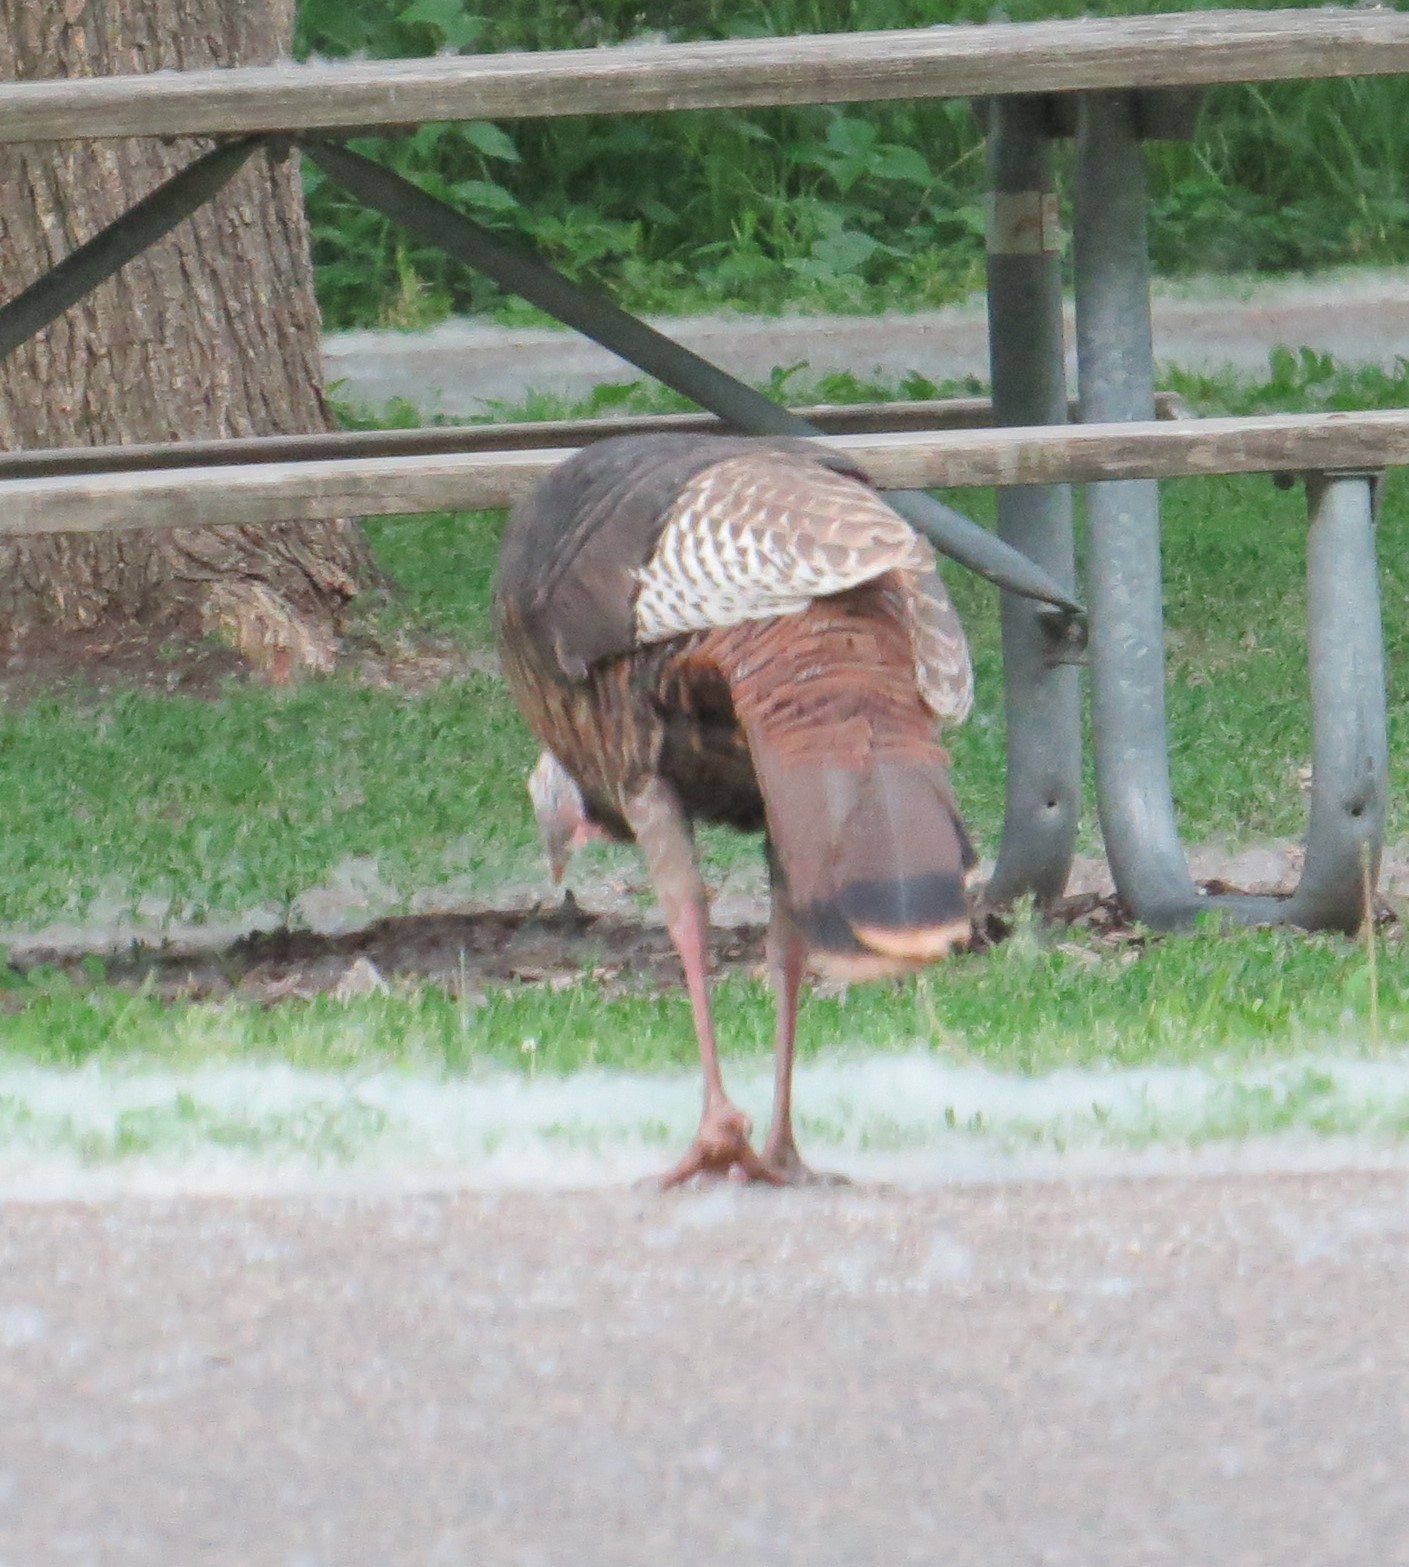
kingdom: Animalia
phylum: Chordata
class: Aves
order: Galliformes
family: Phasianidae
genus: Meleagris
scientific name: Meleagris gallopavo
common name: Wild turkey
